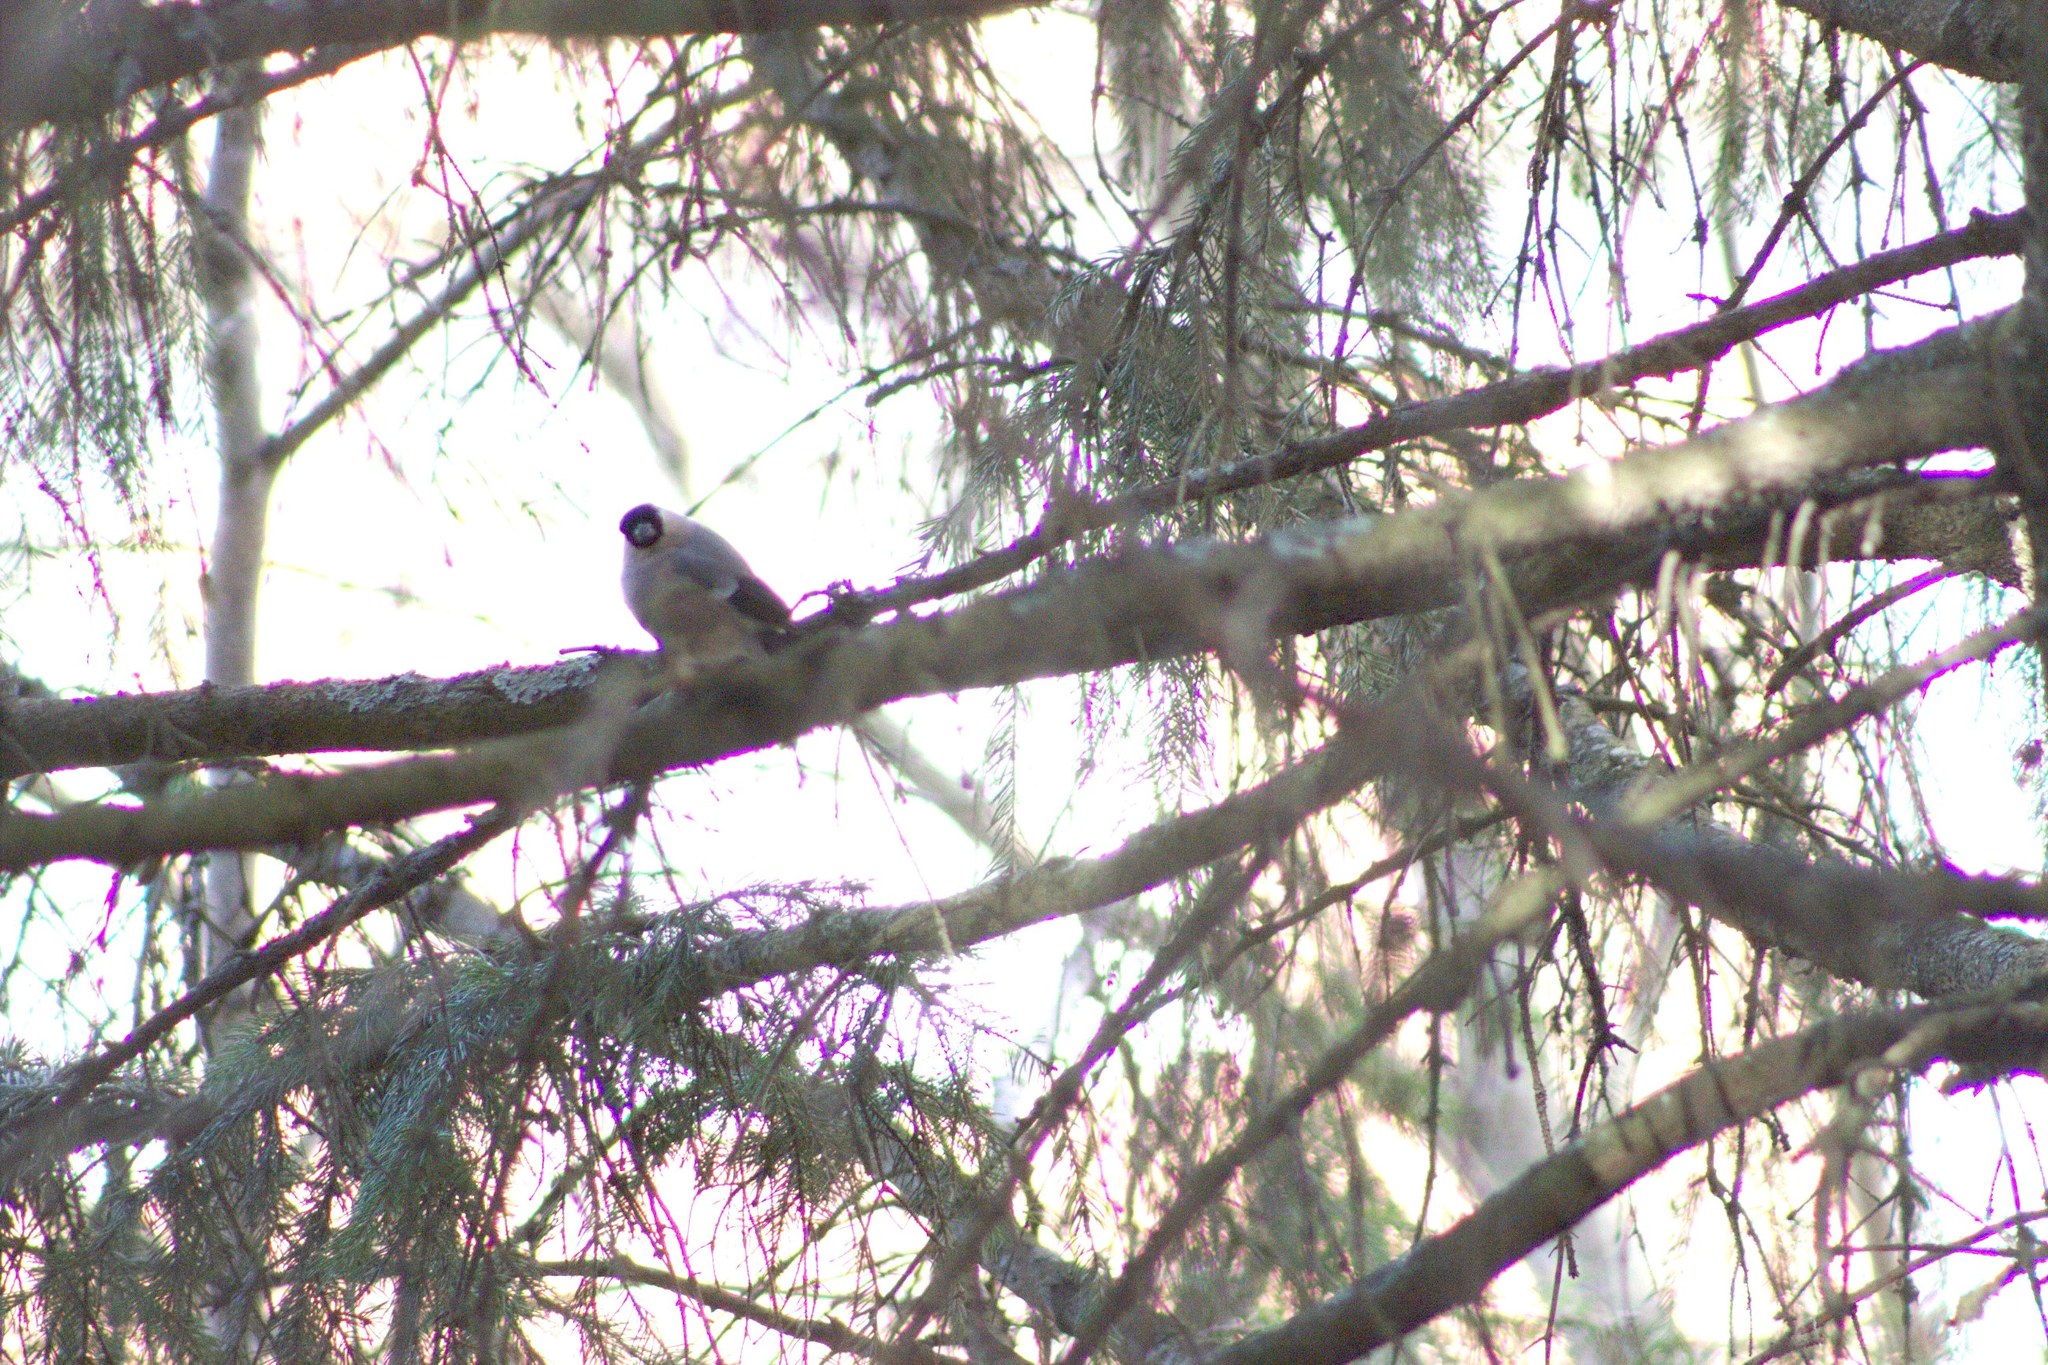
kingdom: Animalia
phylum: Chordata
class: Aves
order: Passeriformes
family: Fringillidae
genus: Pyrrhula
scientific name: Pyrrhula pyrrhula
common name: Eurasian bullfinch
